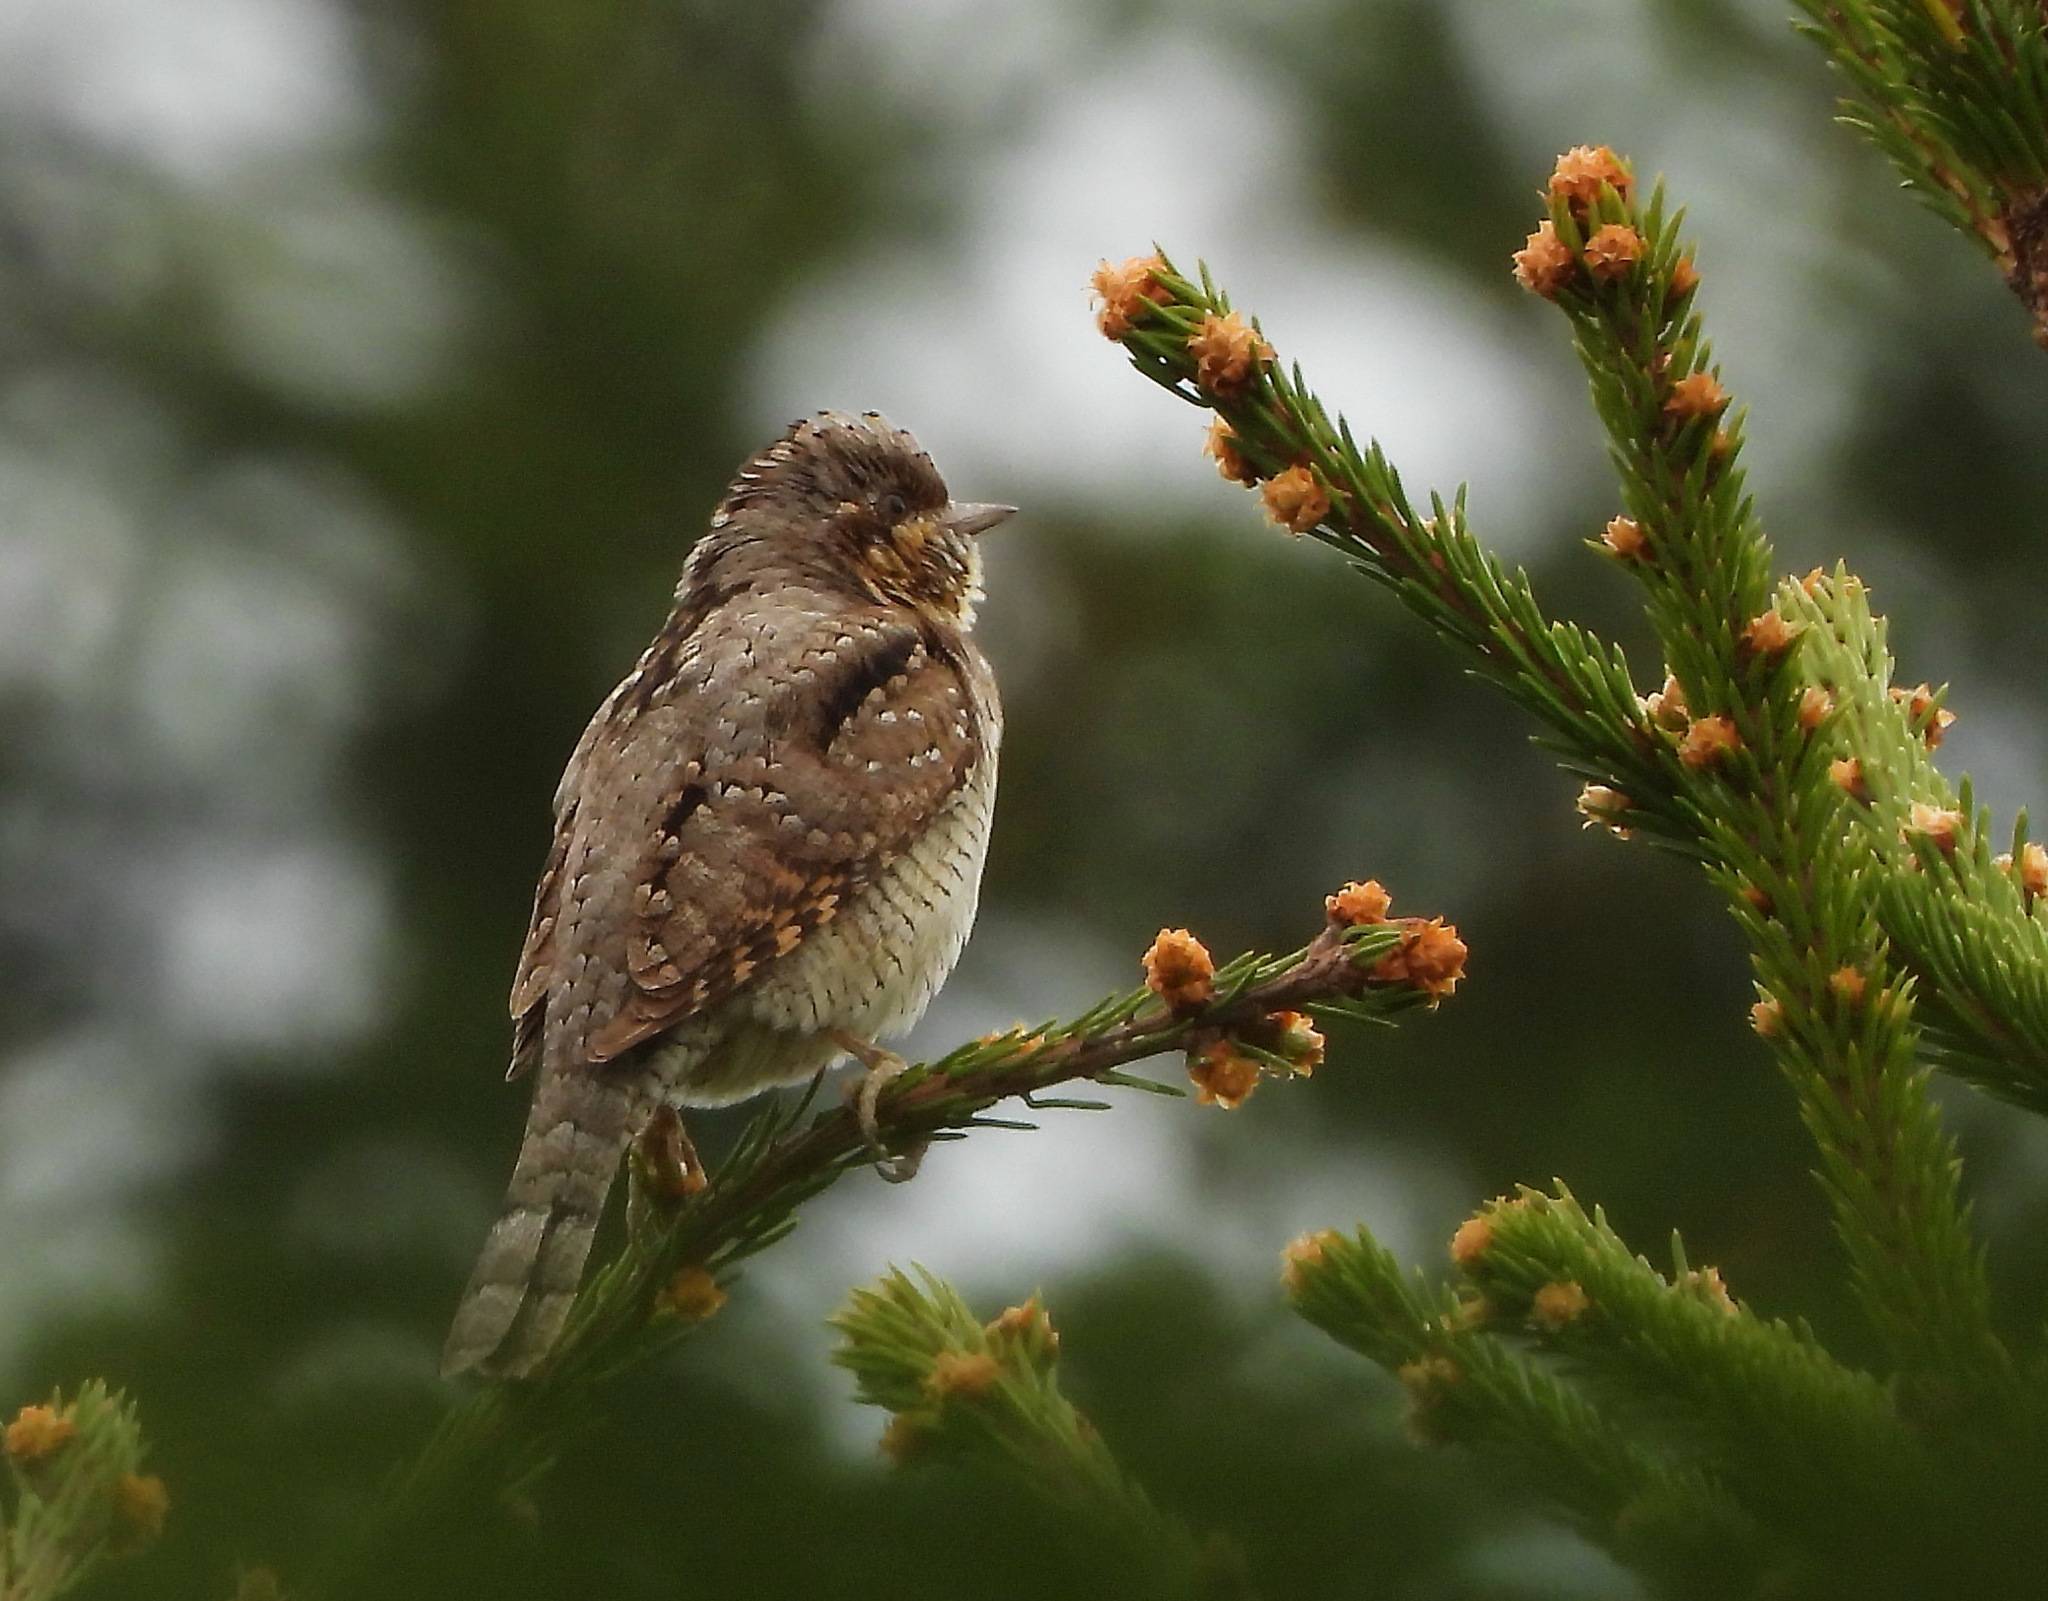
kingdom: Animalia
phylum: Chordata
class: Aves
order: Piciformes
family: Picidae
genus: Jynx
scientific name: Jynx torquilla
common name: Eurasian wryneck
